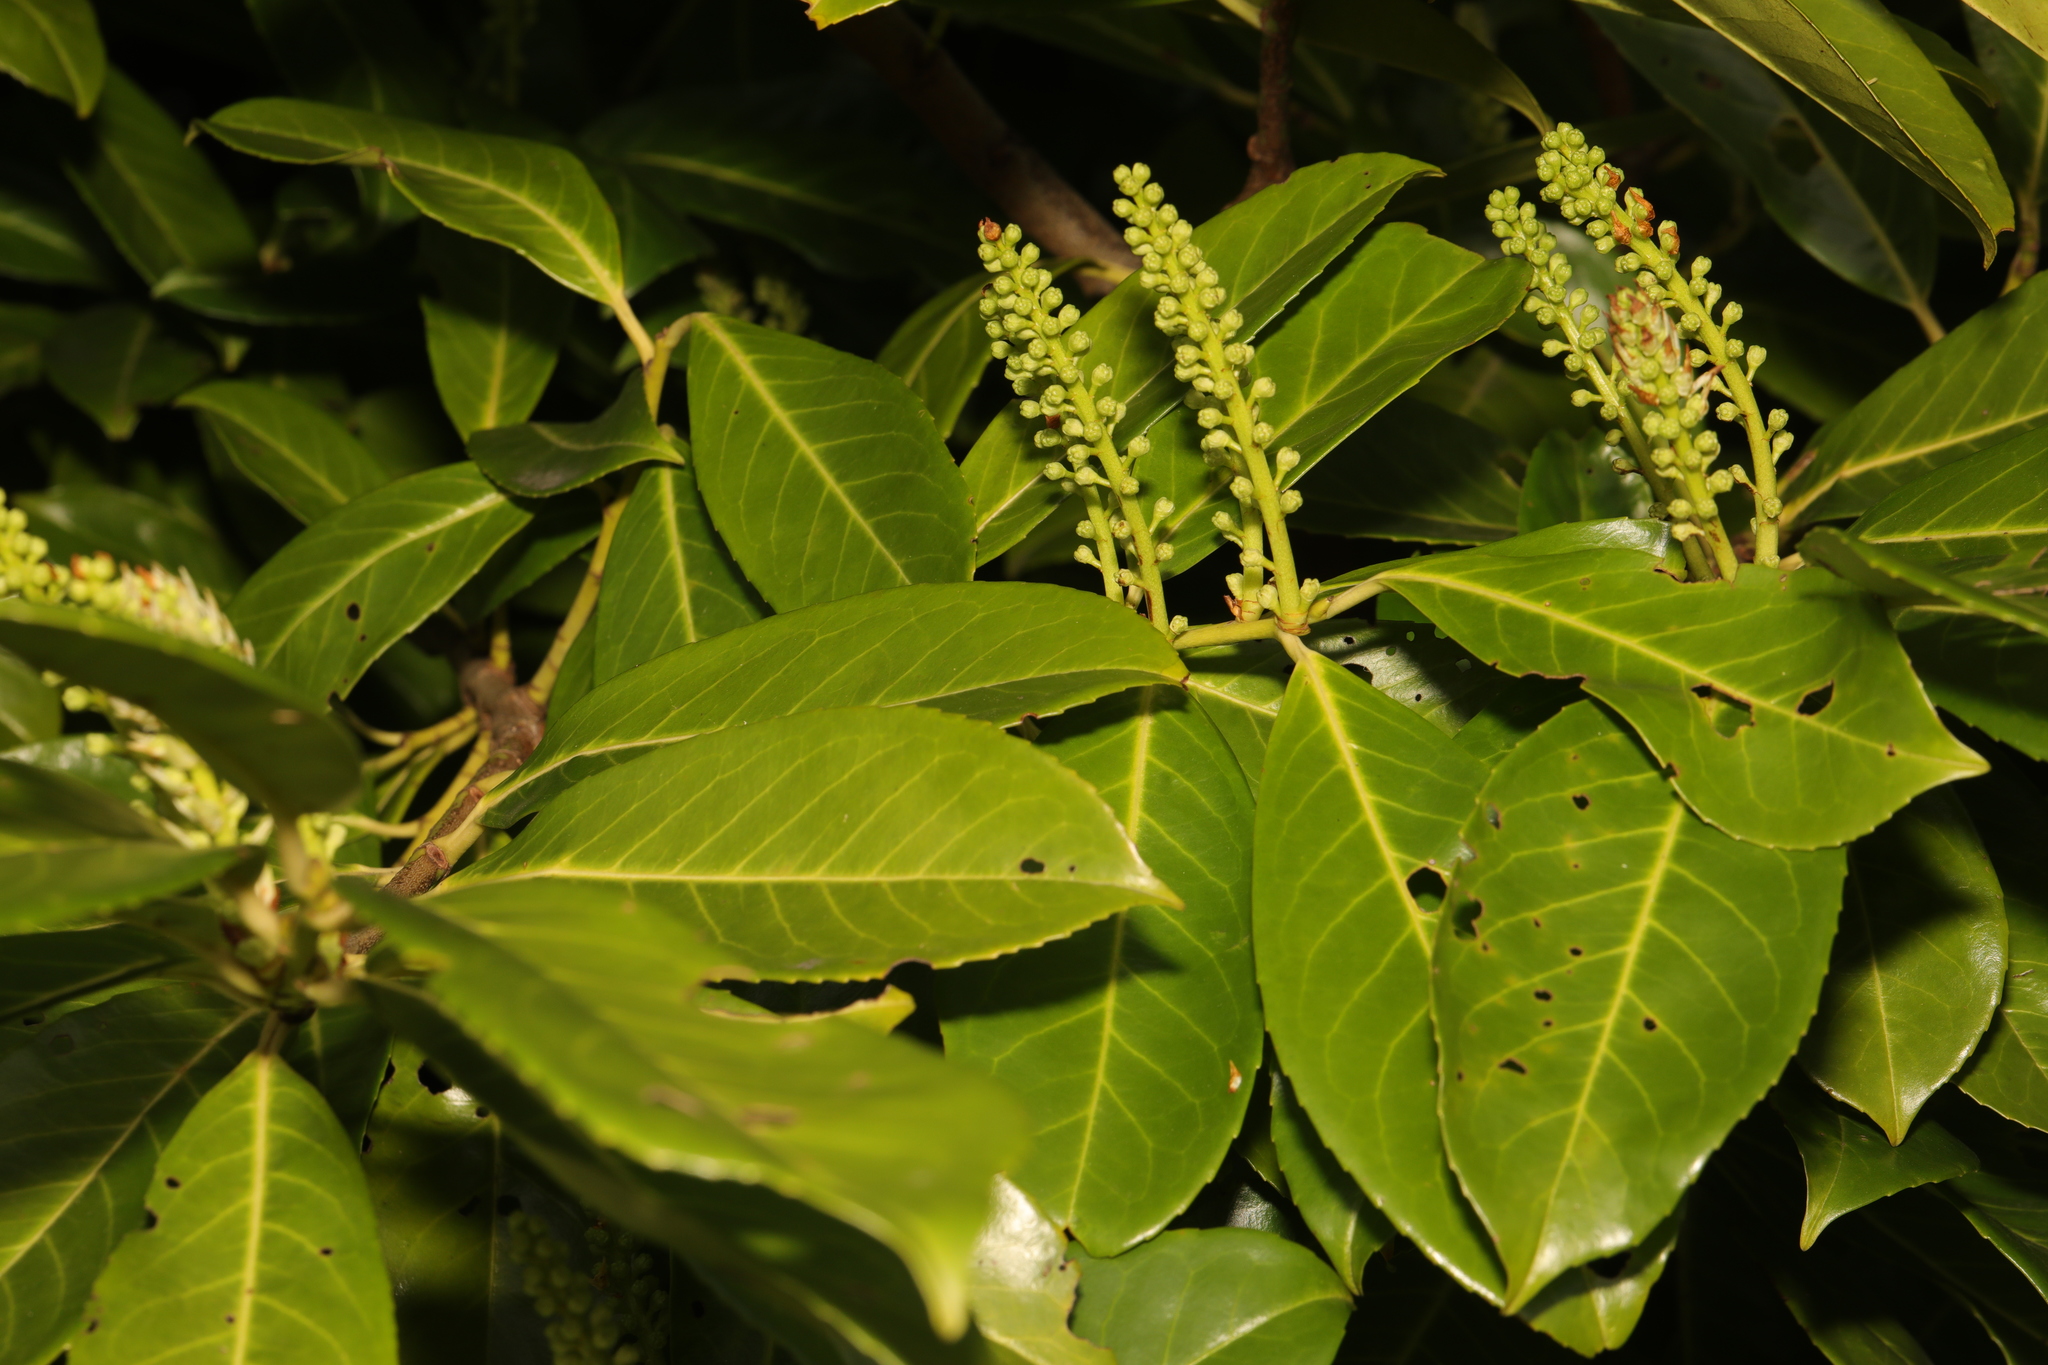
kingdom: Plantae
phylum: Tracheophyta
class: Magnoliopsida
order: Rosales
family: Rosaceae
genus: Prunus
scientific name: Prunus laurocerasus
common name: Cherry laurel
